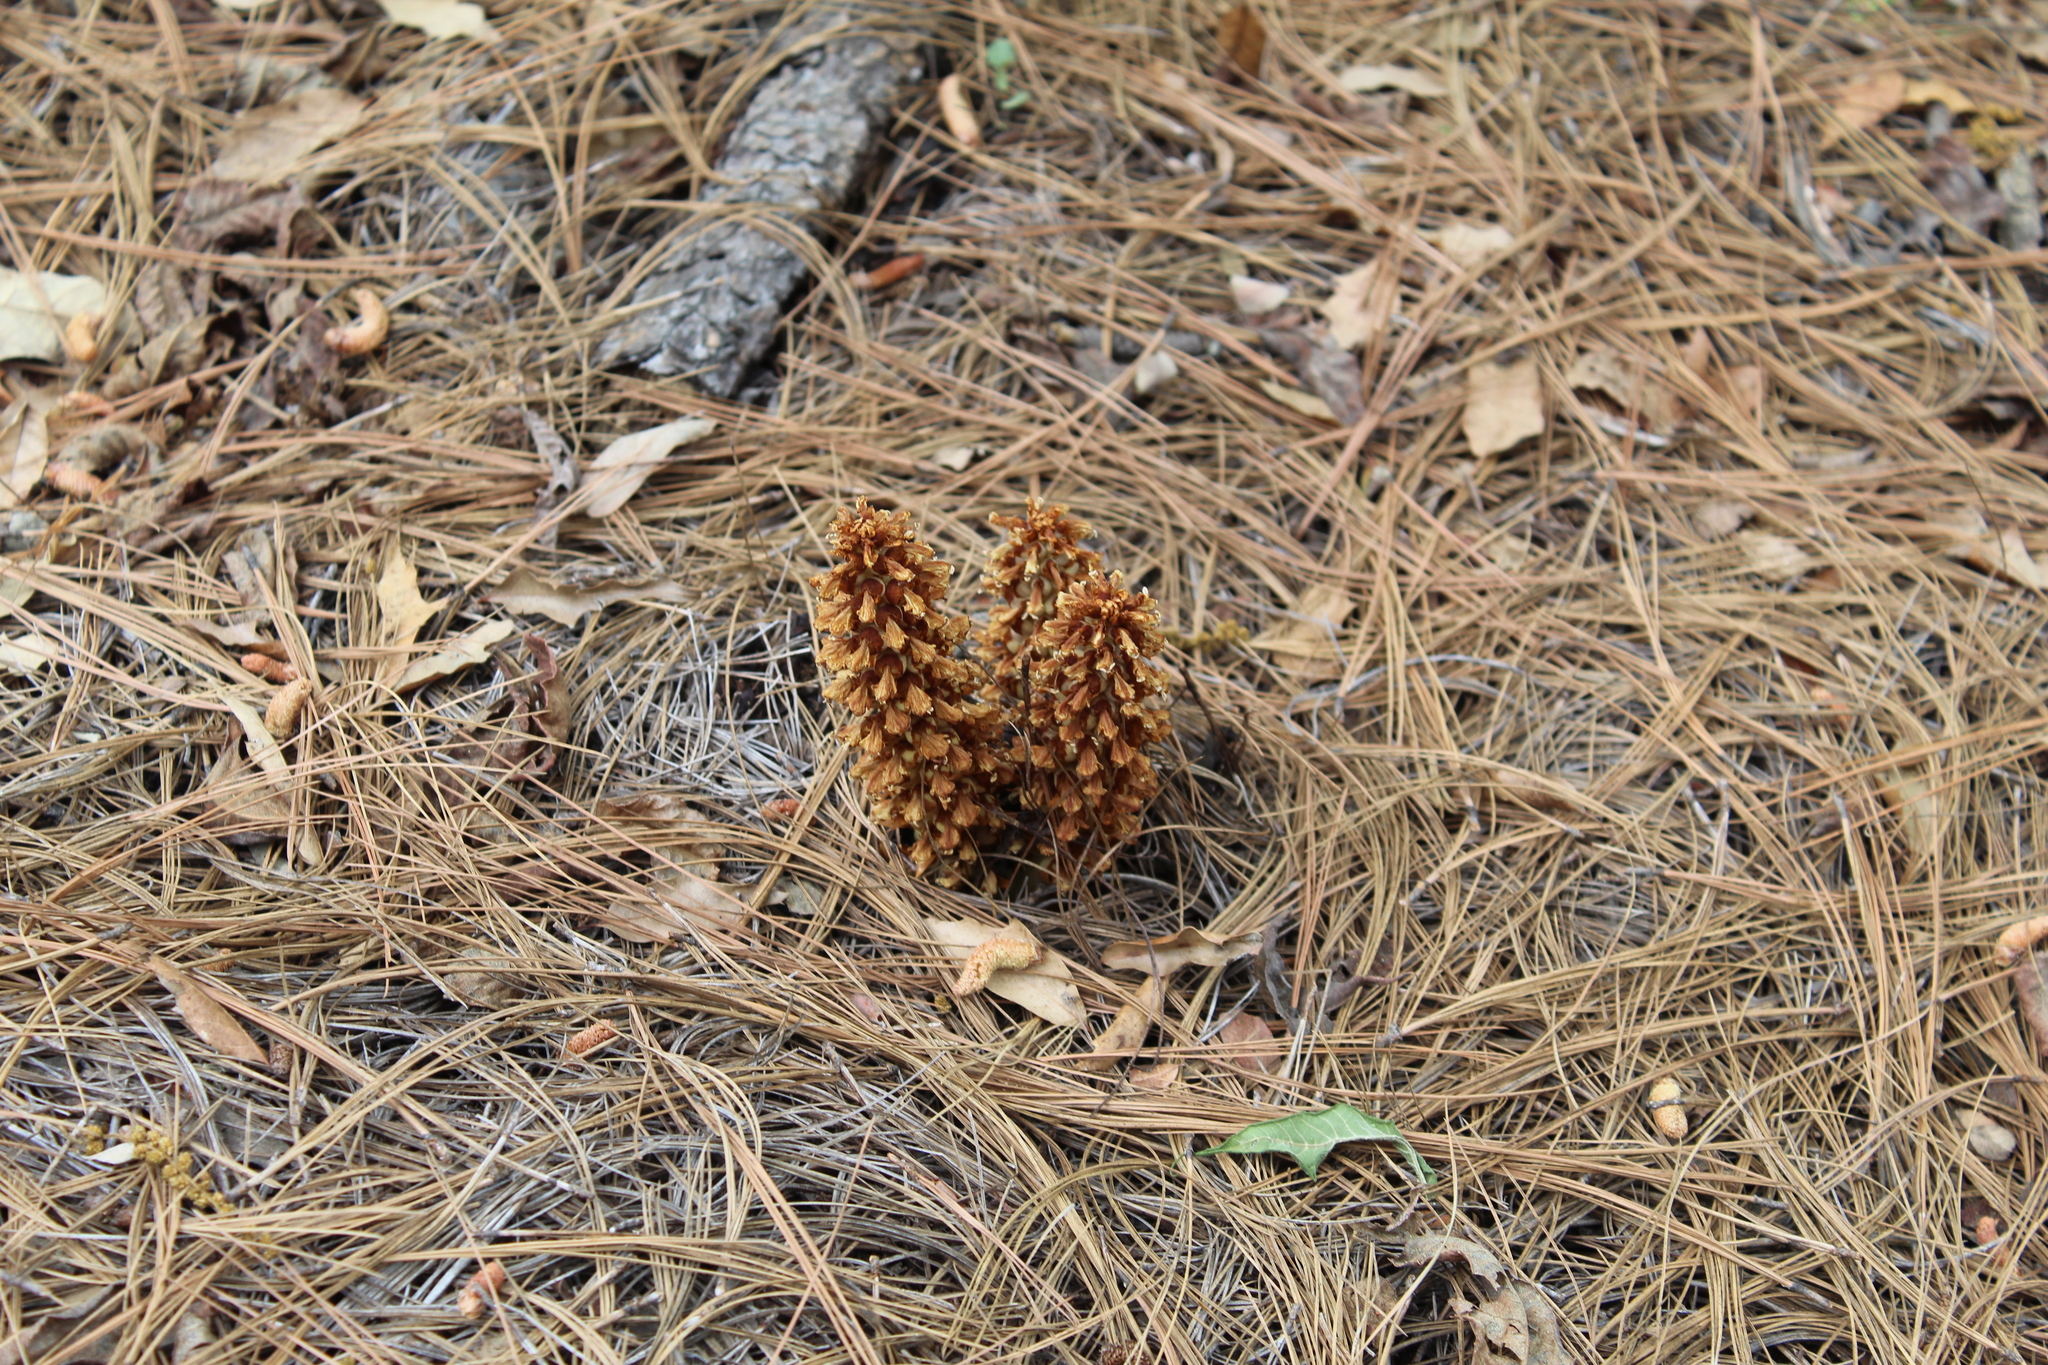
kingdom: Plantae
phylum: Tracheophyta
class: Magnoliopsida
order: Lamiales
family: Orobanchaceae
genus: Conopholis
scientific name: Conopholis alpina
